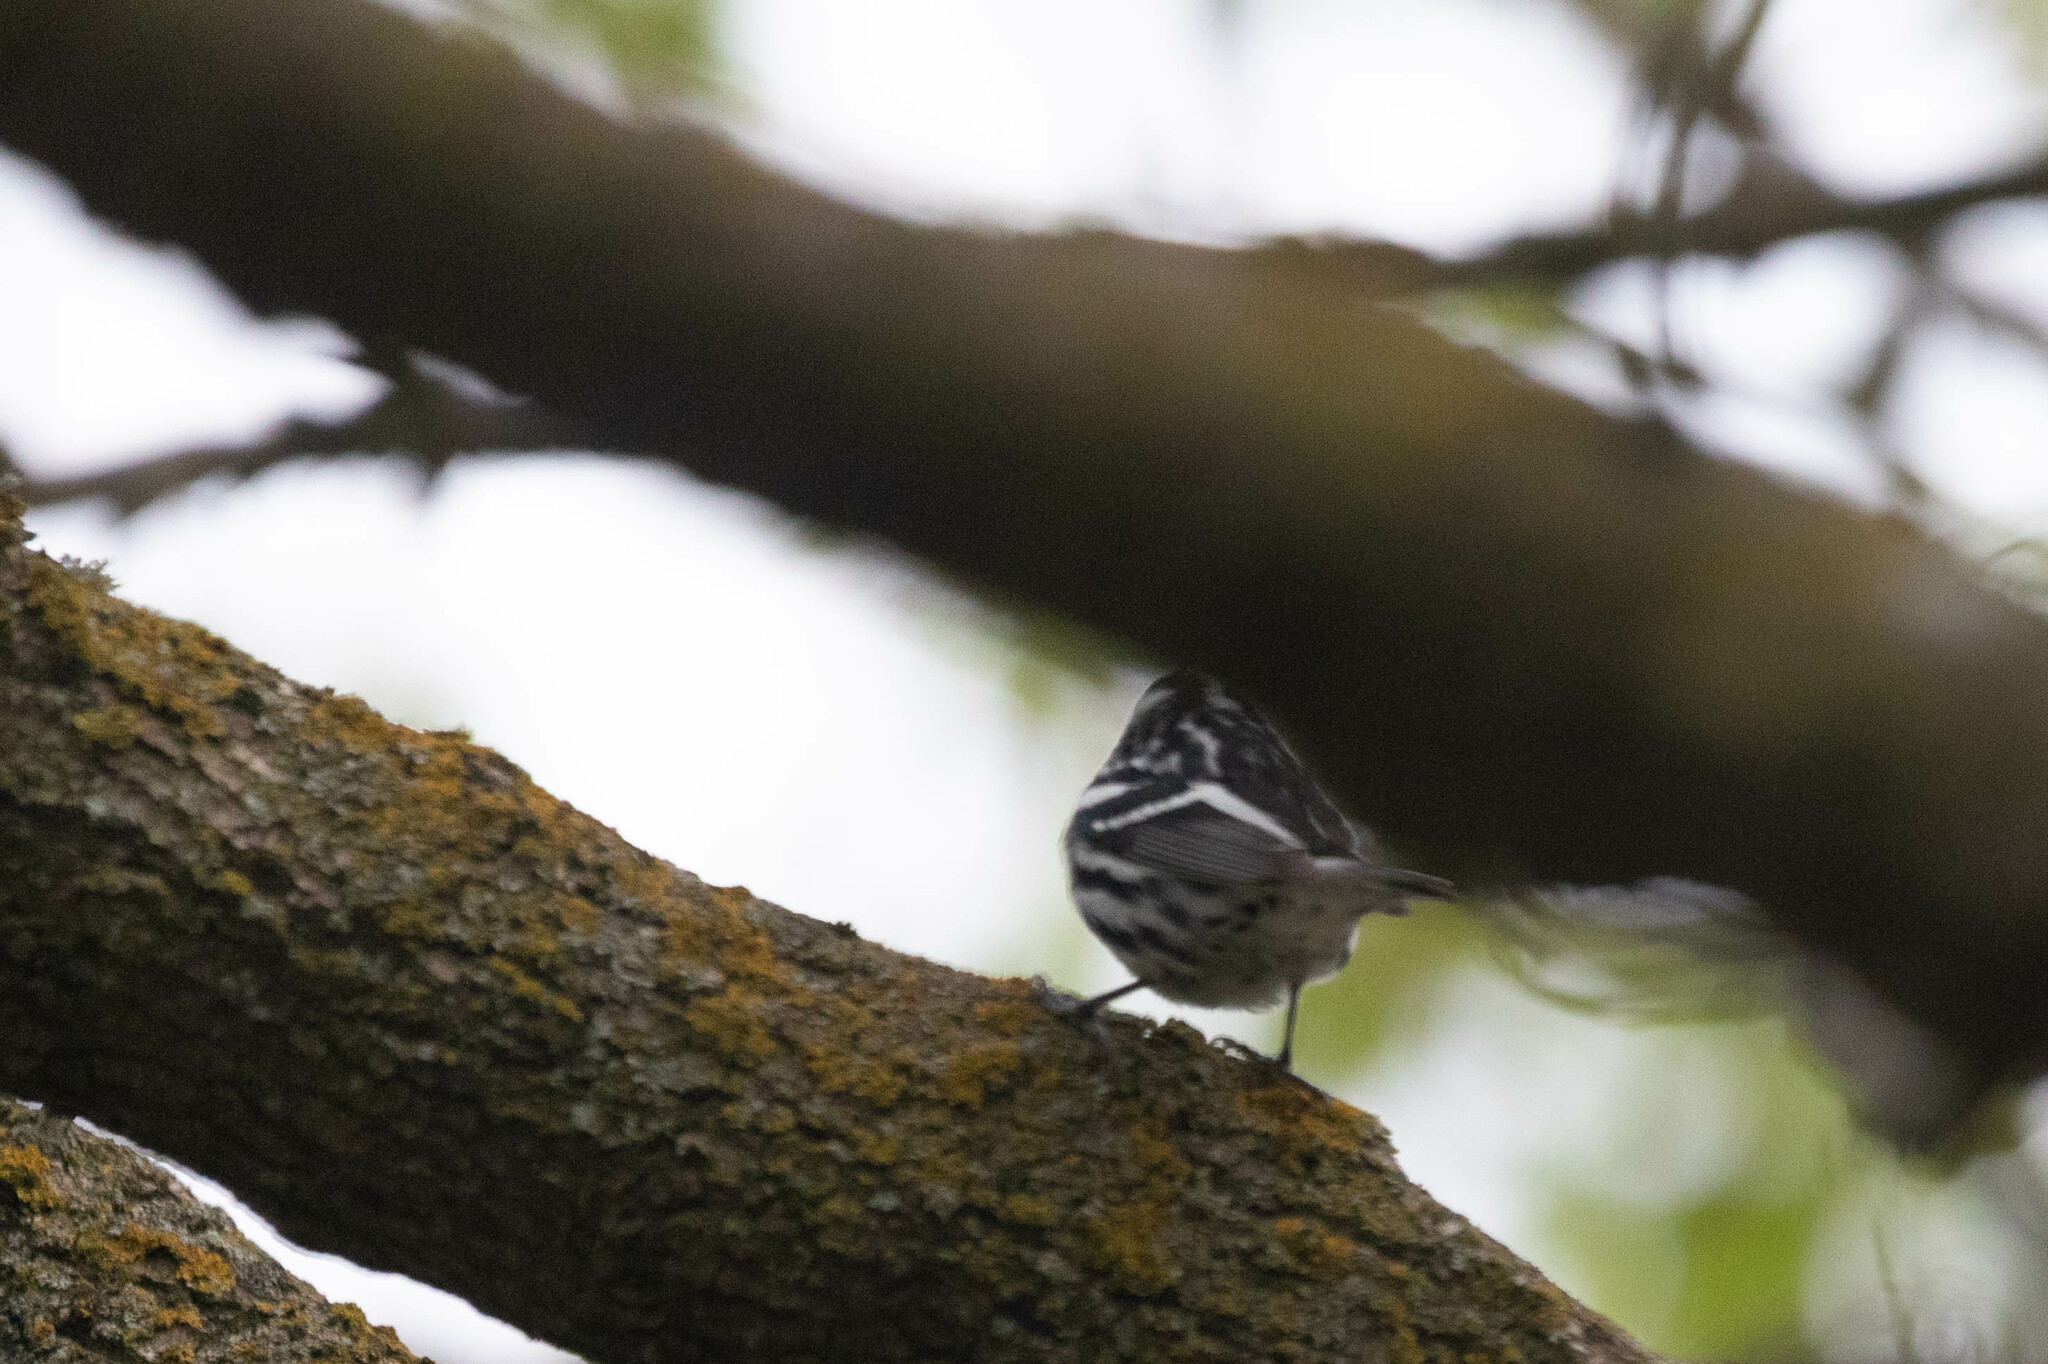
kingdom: Animalia
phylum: Chordata
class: Aves
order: Passeriformes
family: Parulidae
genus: Mniotilta
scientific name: Mniotilta varia
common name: Black-and-white warbler
